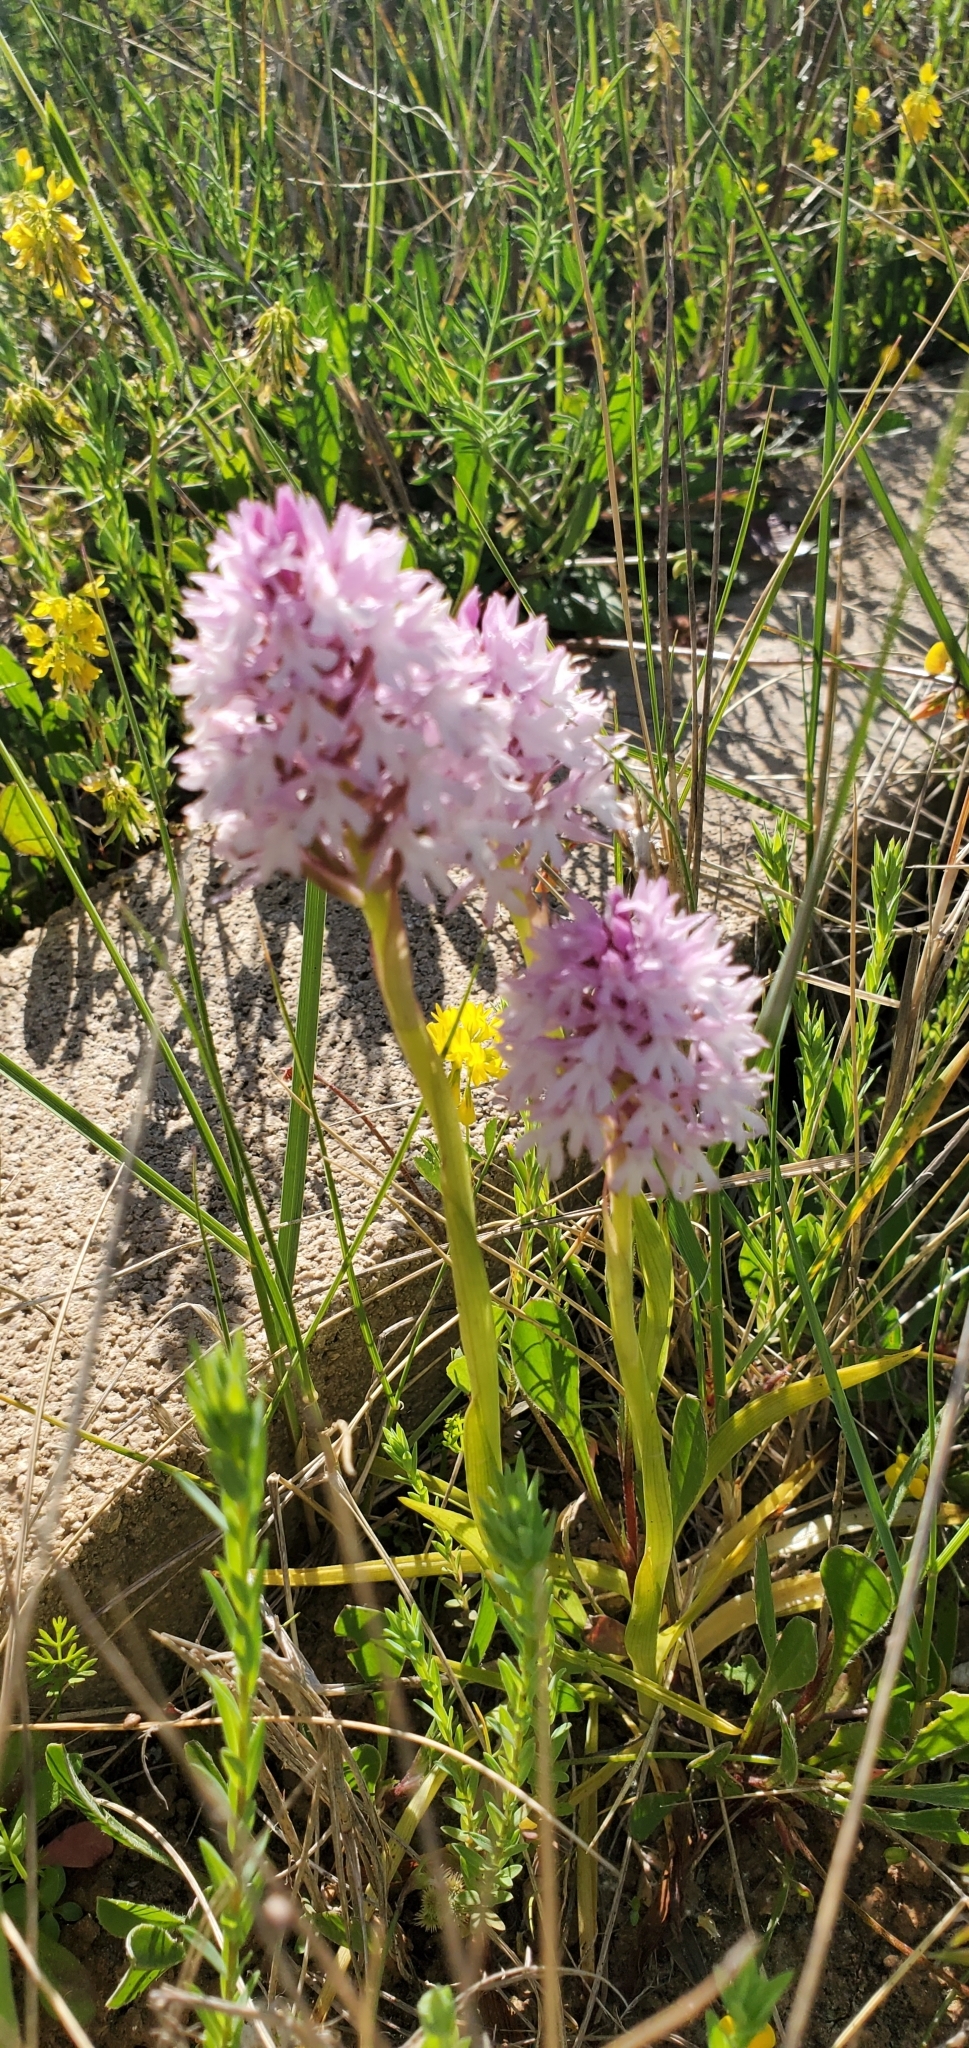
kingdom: Plantae
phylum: Tracheophyta
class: Liliopsida
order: Asparagales
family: Orchidaceae
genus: Anacamptis
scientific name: Anacamptis pyramidalis
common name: Pyramidal orchid
